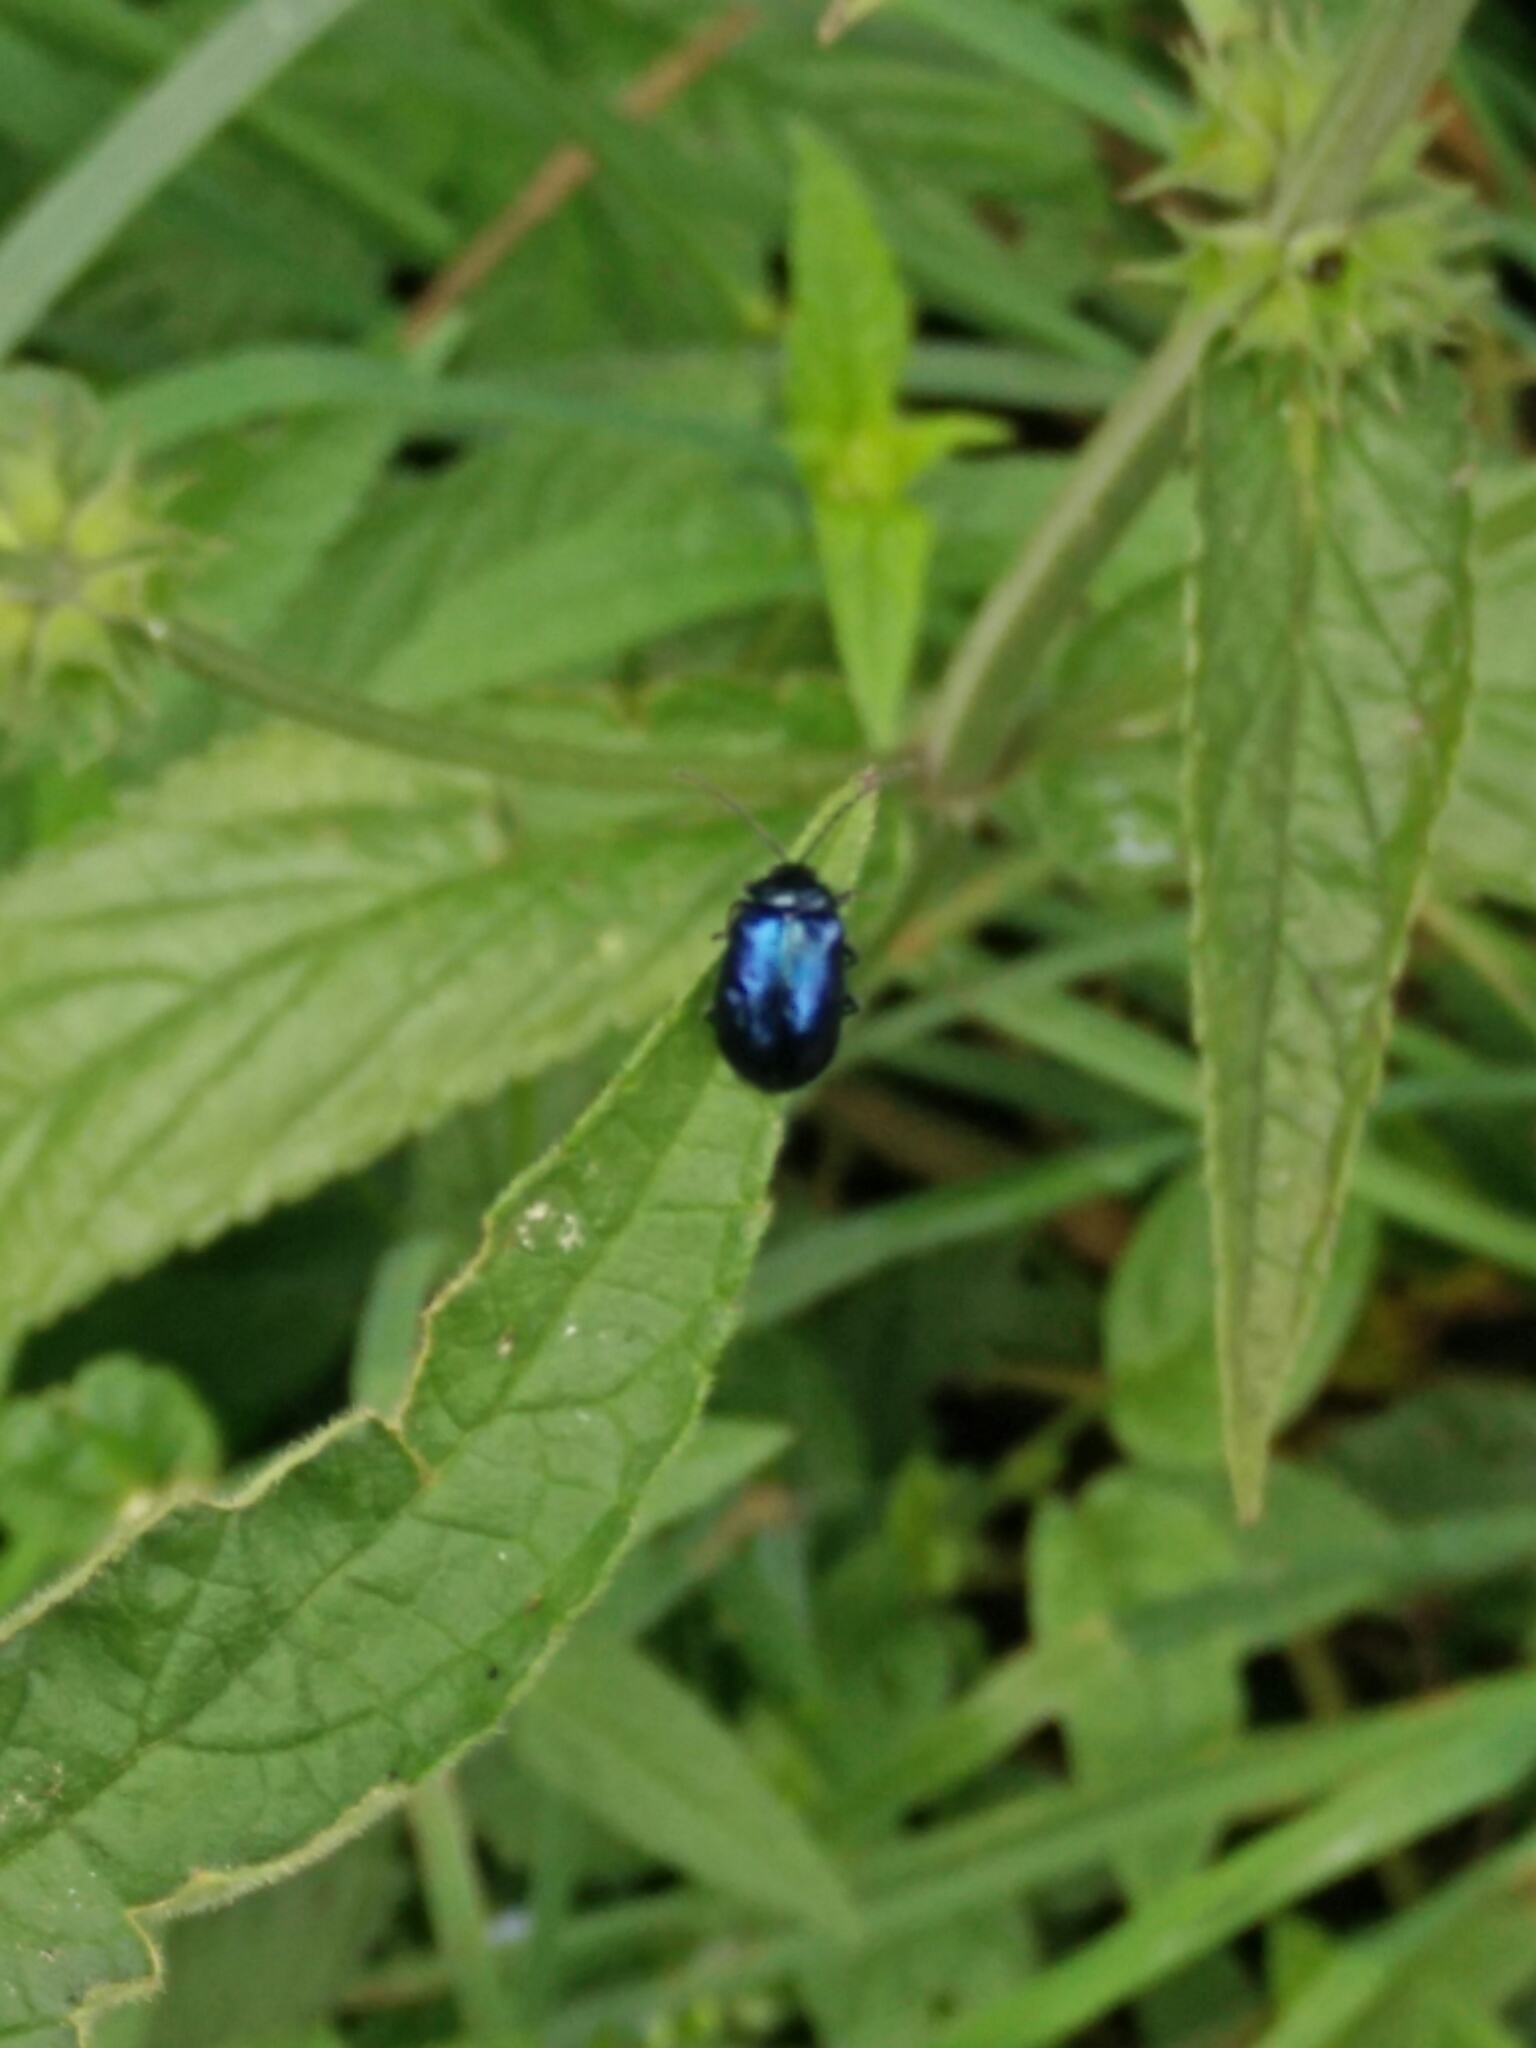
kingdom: Animalia
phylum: Arthropoda
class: Insecta
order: Coleoptera
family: Chrysomelidae
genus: Agelastica
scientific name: Agelastica alni
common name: Alder leaf beetle
